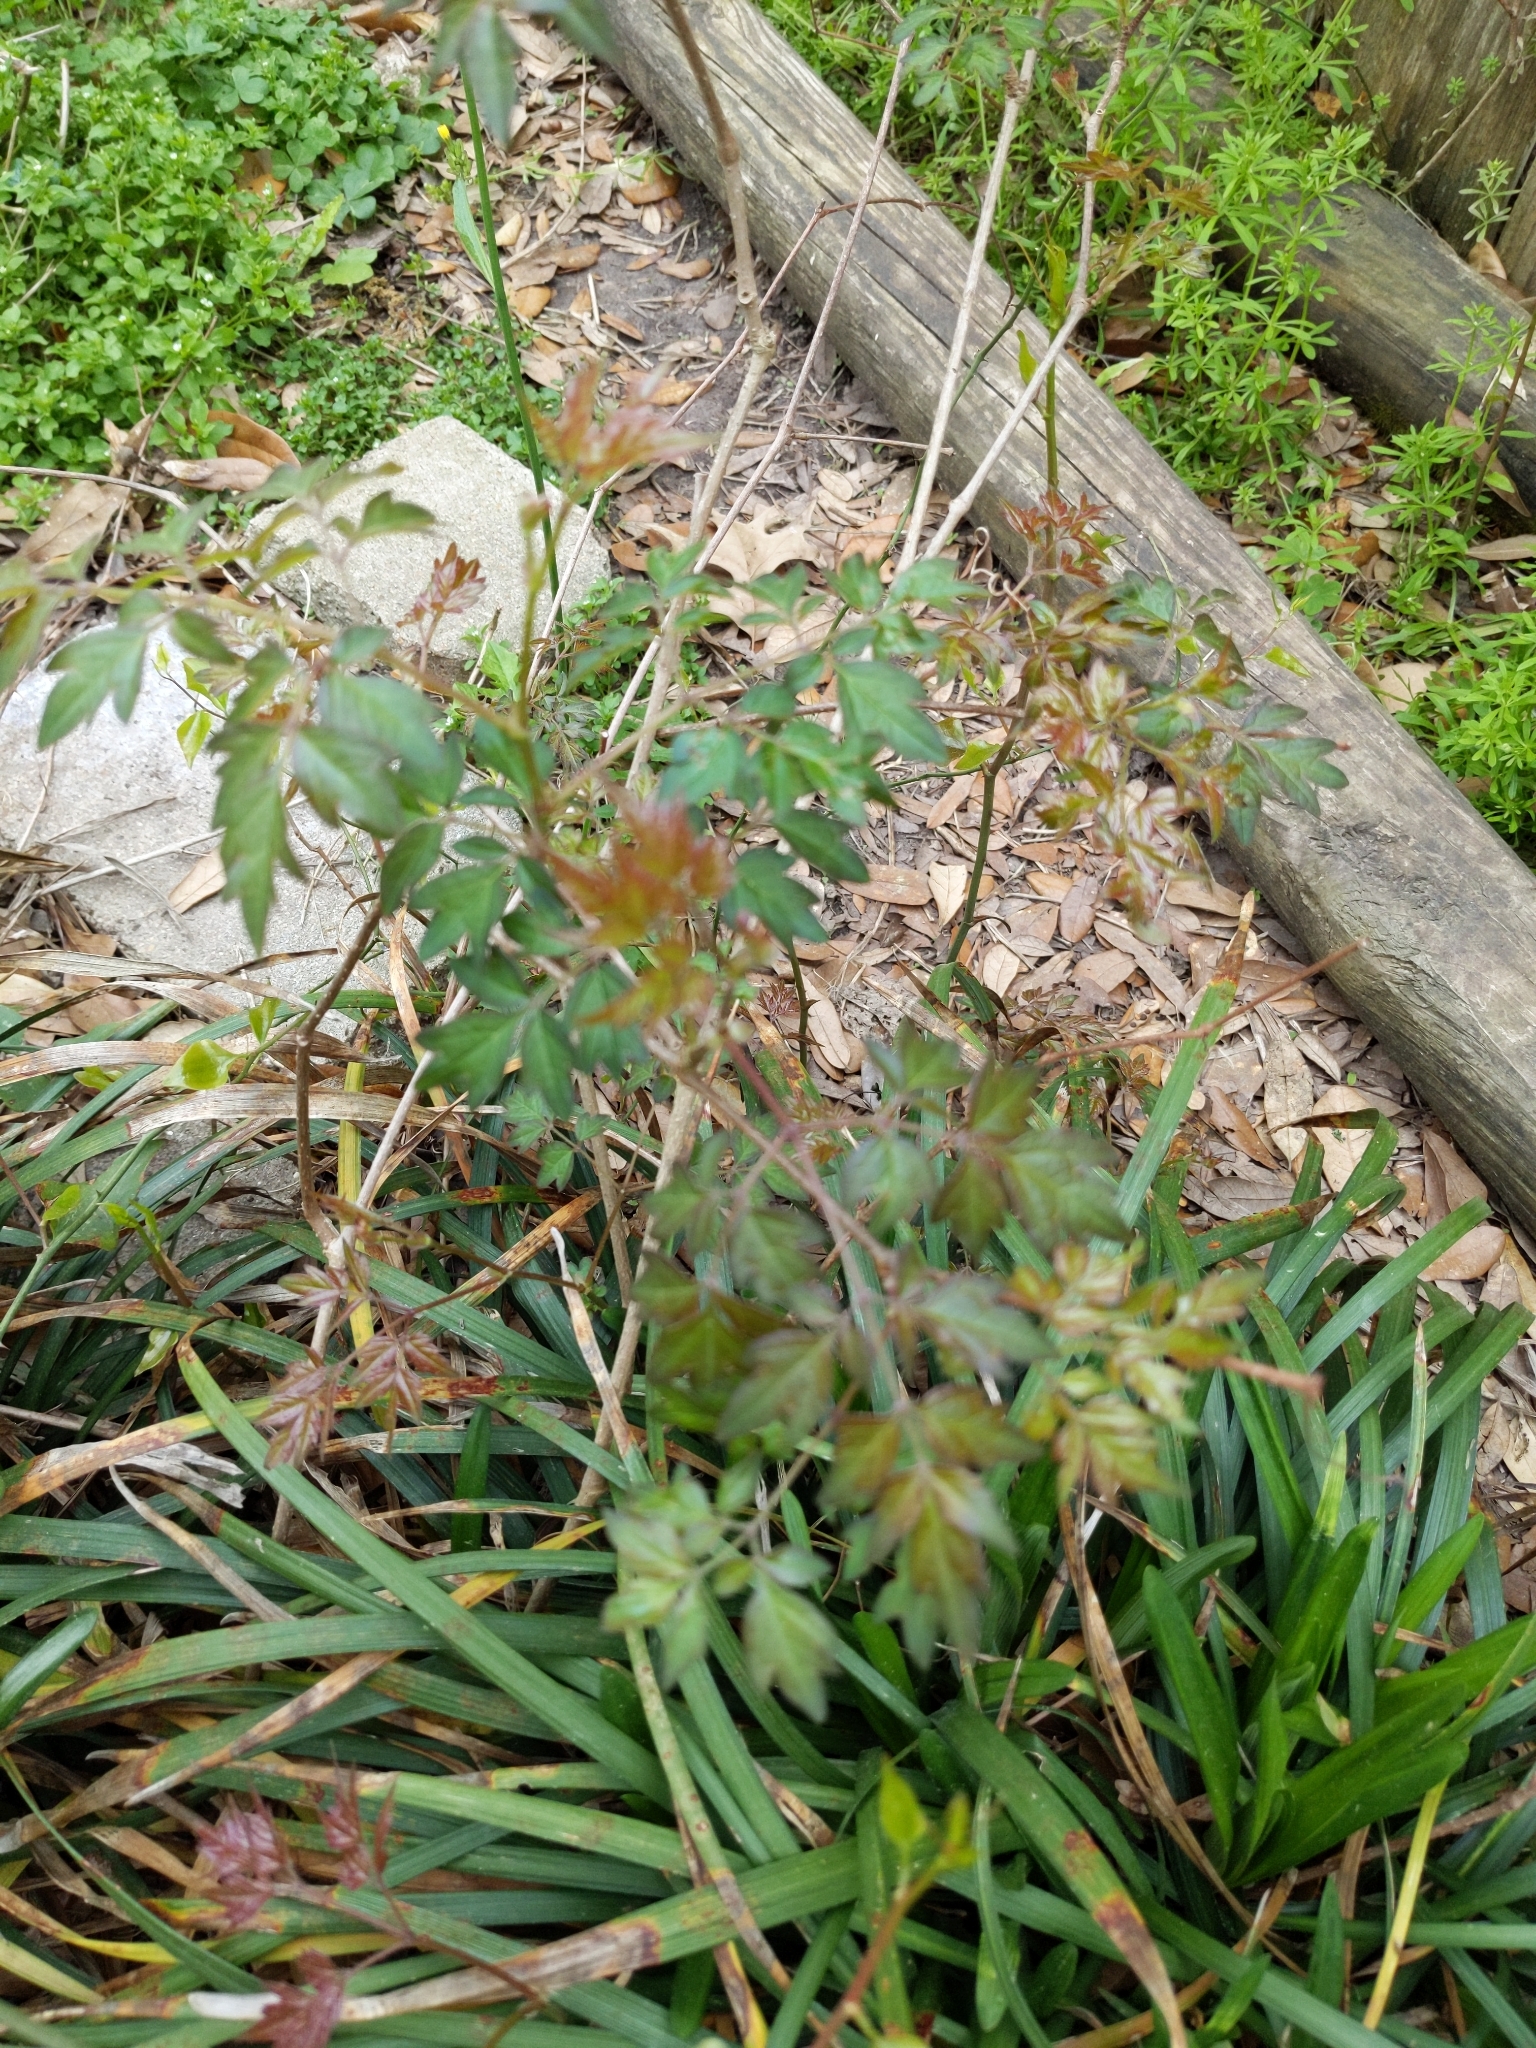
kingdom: Plantae
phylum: Tracheophyta
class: Magnoliopsida
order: Vitales
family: Vitaceae
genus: Nekemias
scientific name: Nekemias arborea
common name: Peppervine
